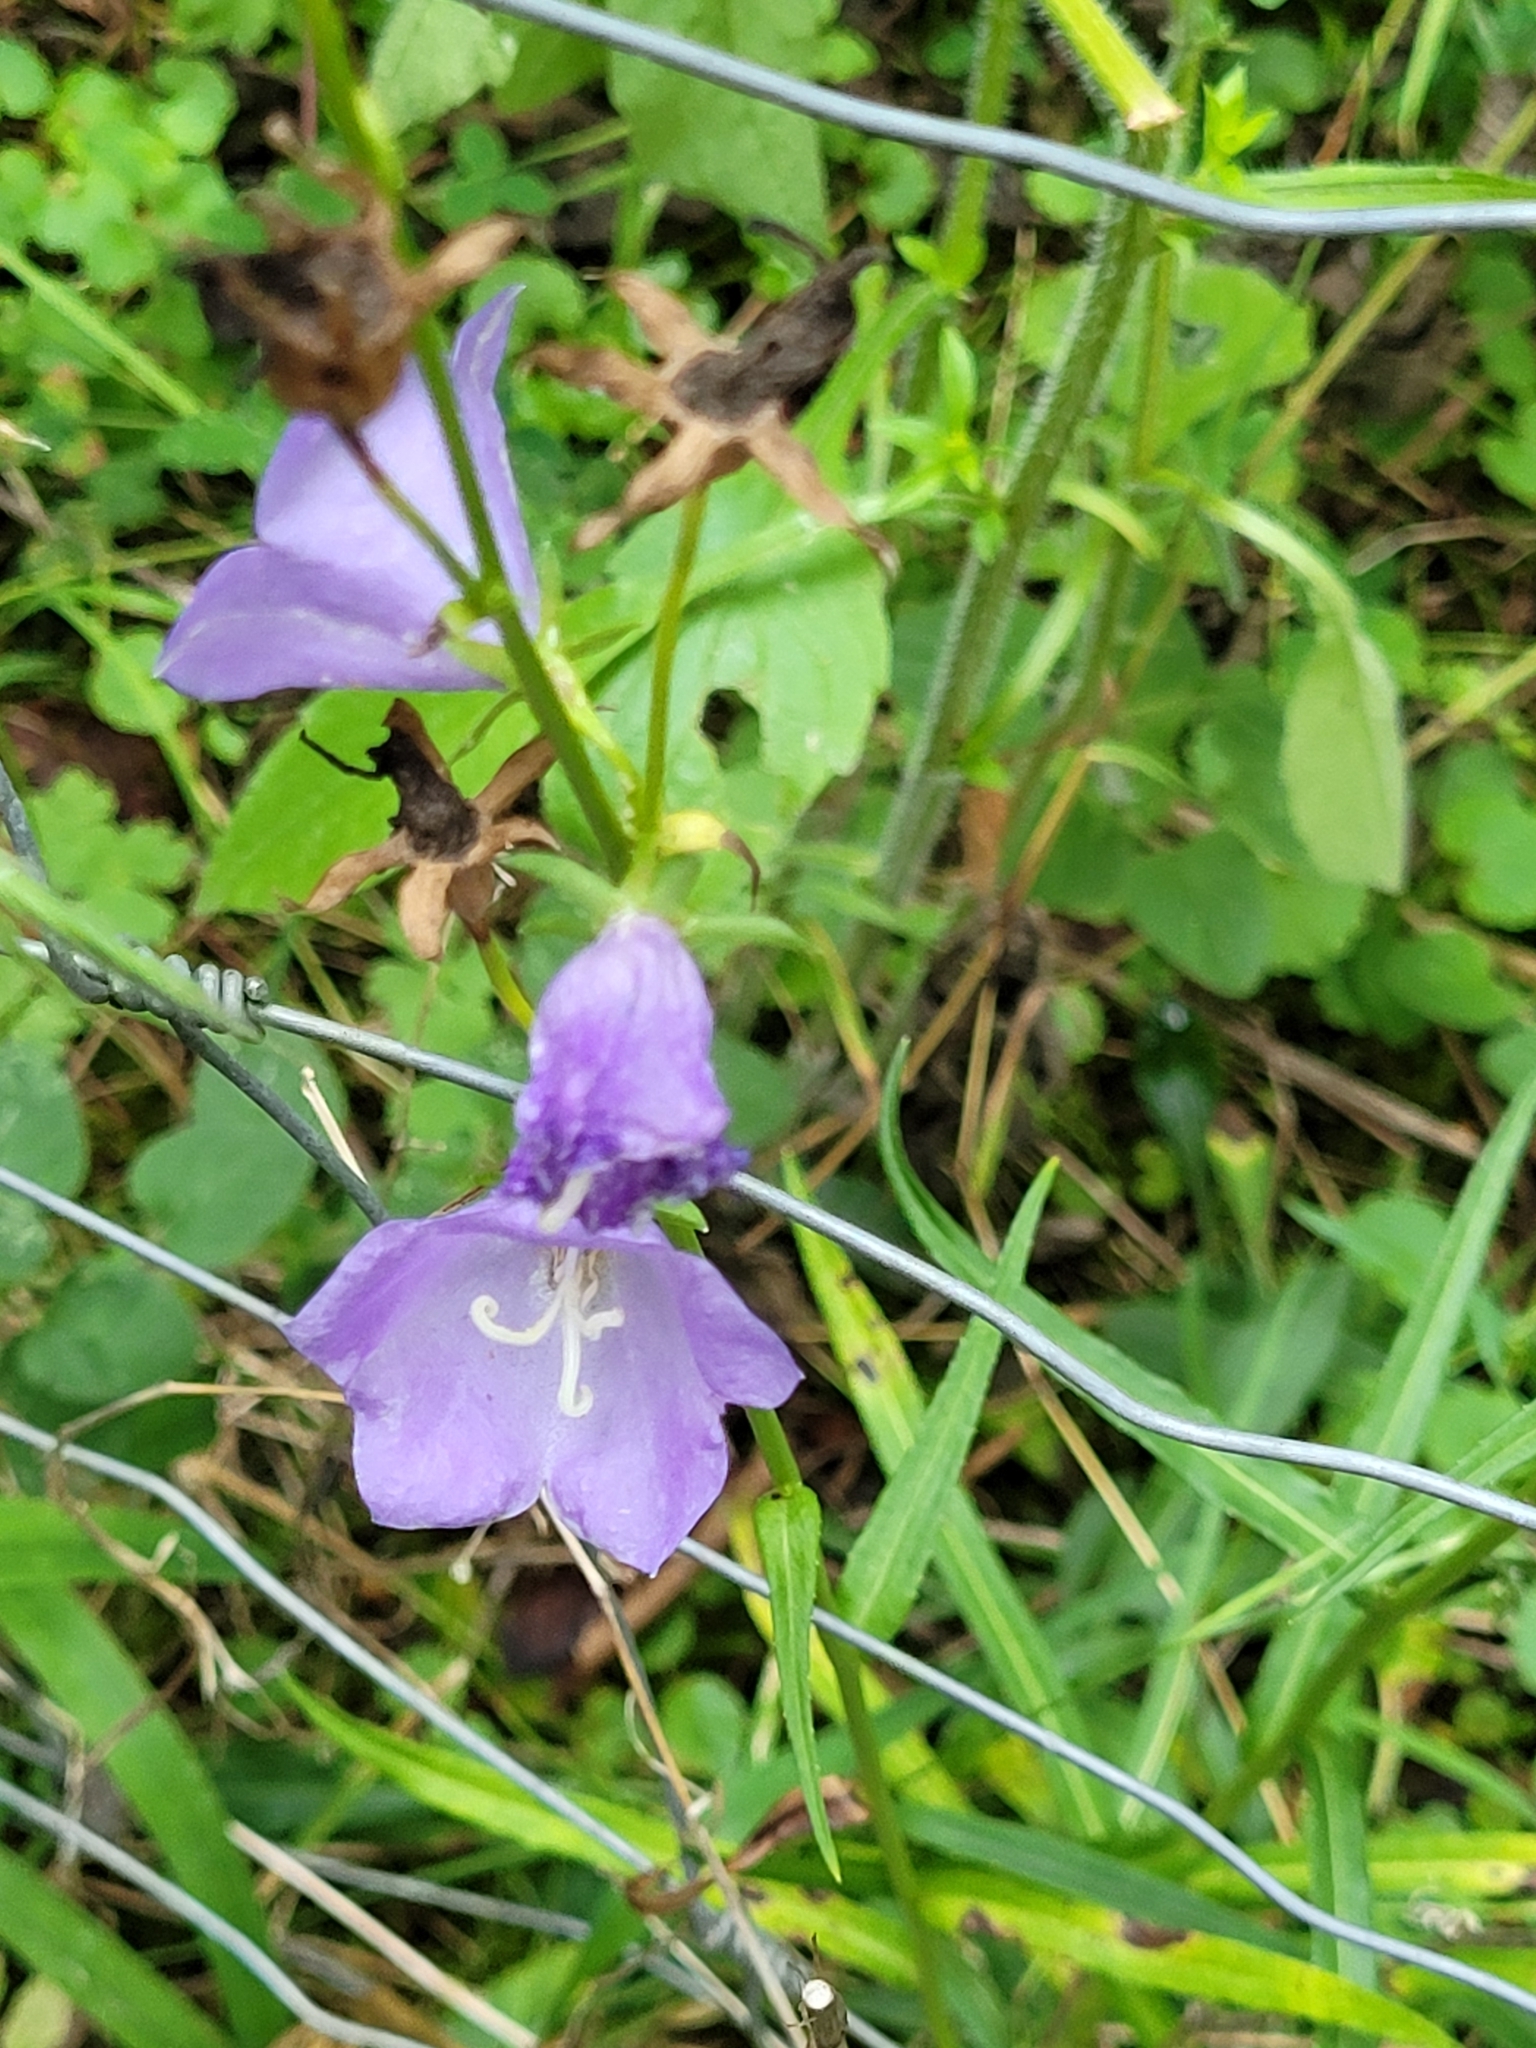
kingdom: Plantae
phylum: Tracheophyta
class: Magnoliopsida
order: Asterales
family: Campanulaceae
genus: Campanula
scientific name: Campanula persicifolia
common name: Peach-leaved bellflower
